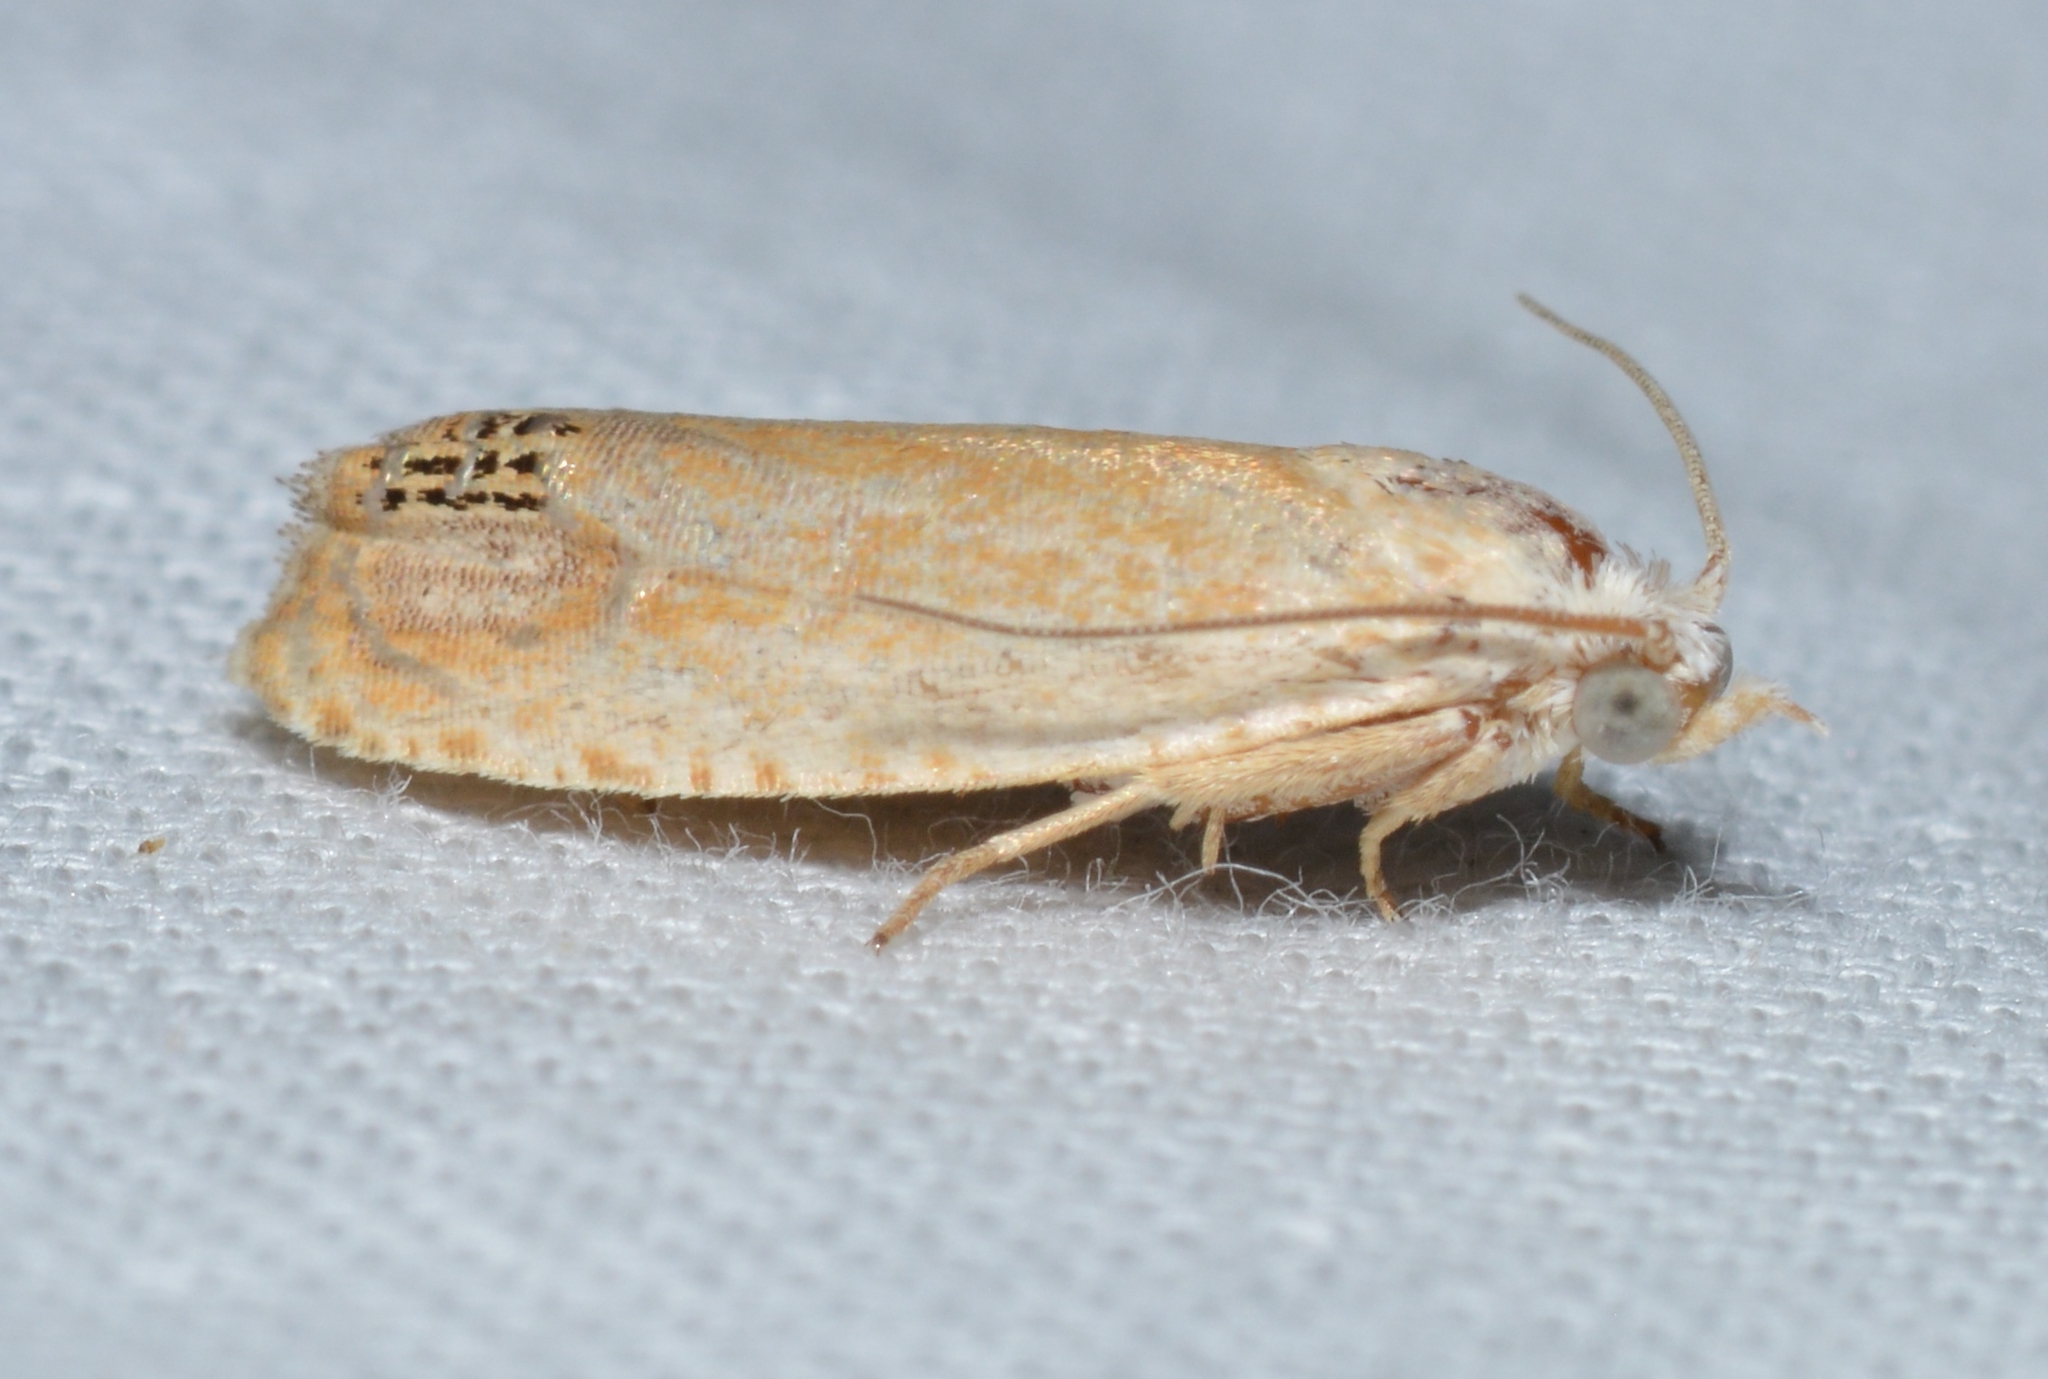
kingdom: Animalia
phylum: Arthropoda
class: Insecta
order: Lepidoptera
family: Tortricidae
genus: Eucosma
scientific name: Eucosma glomerana
